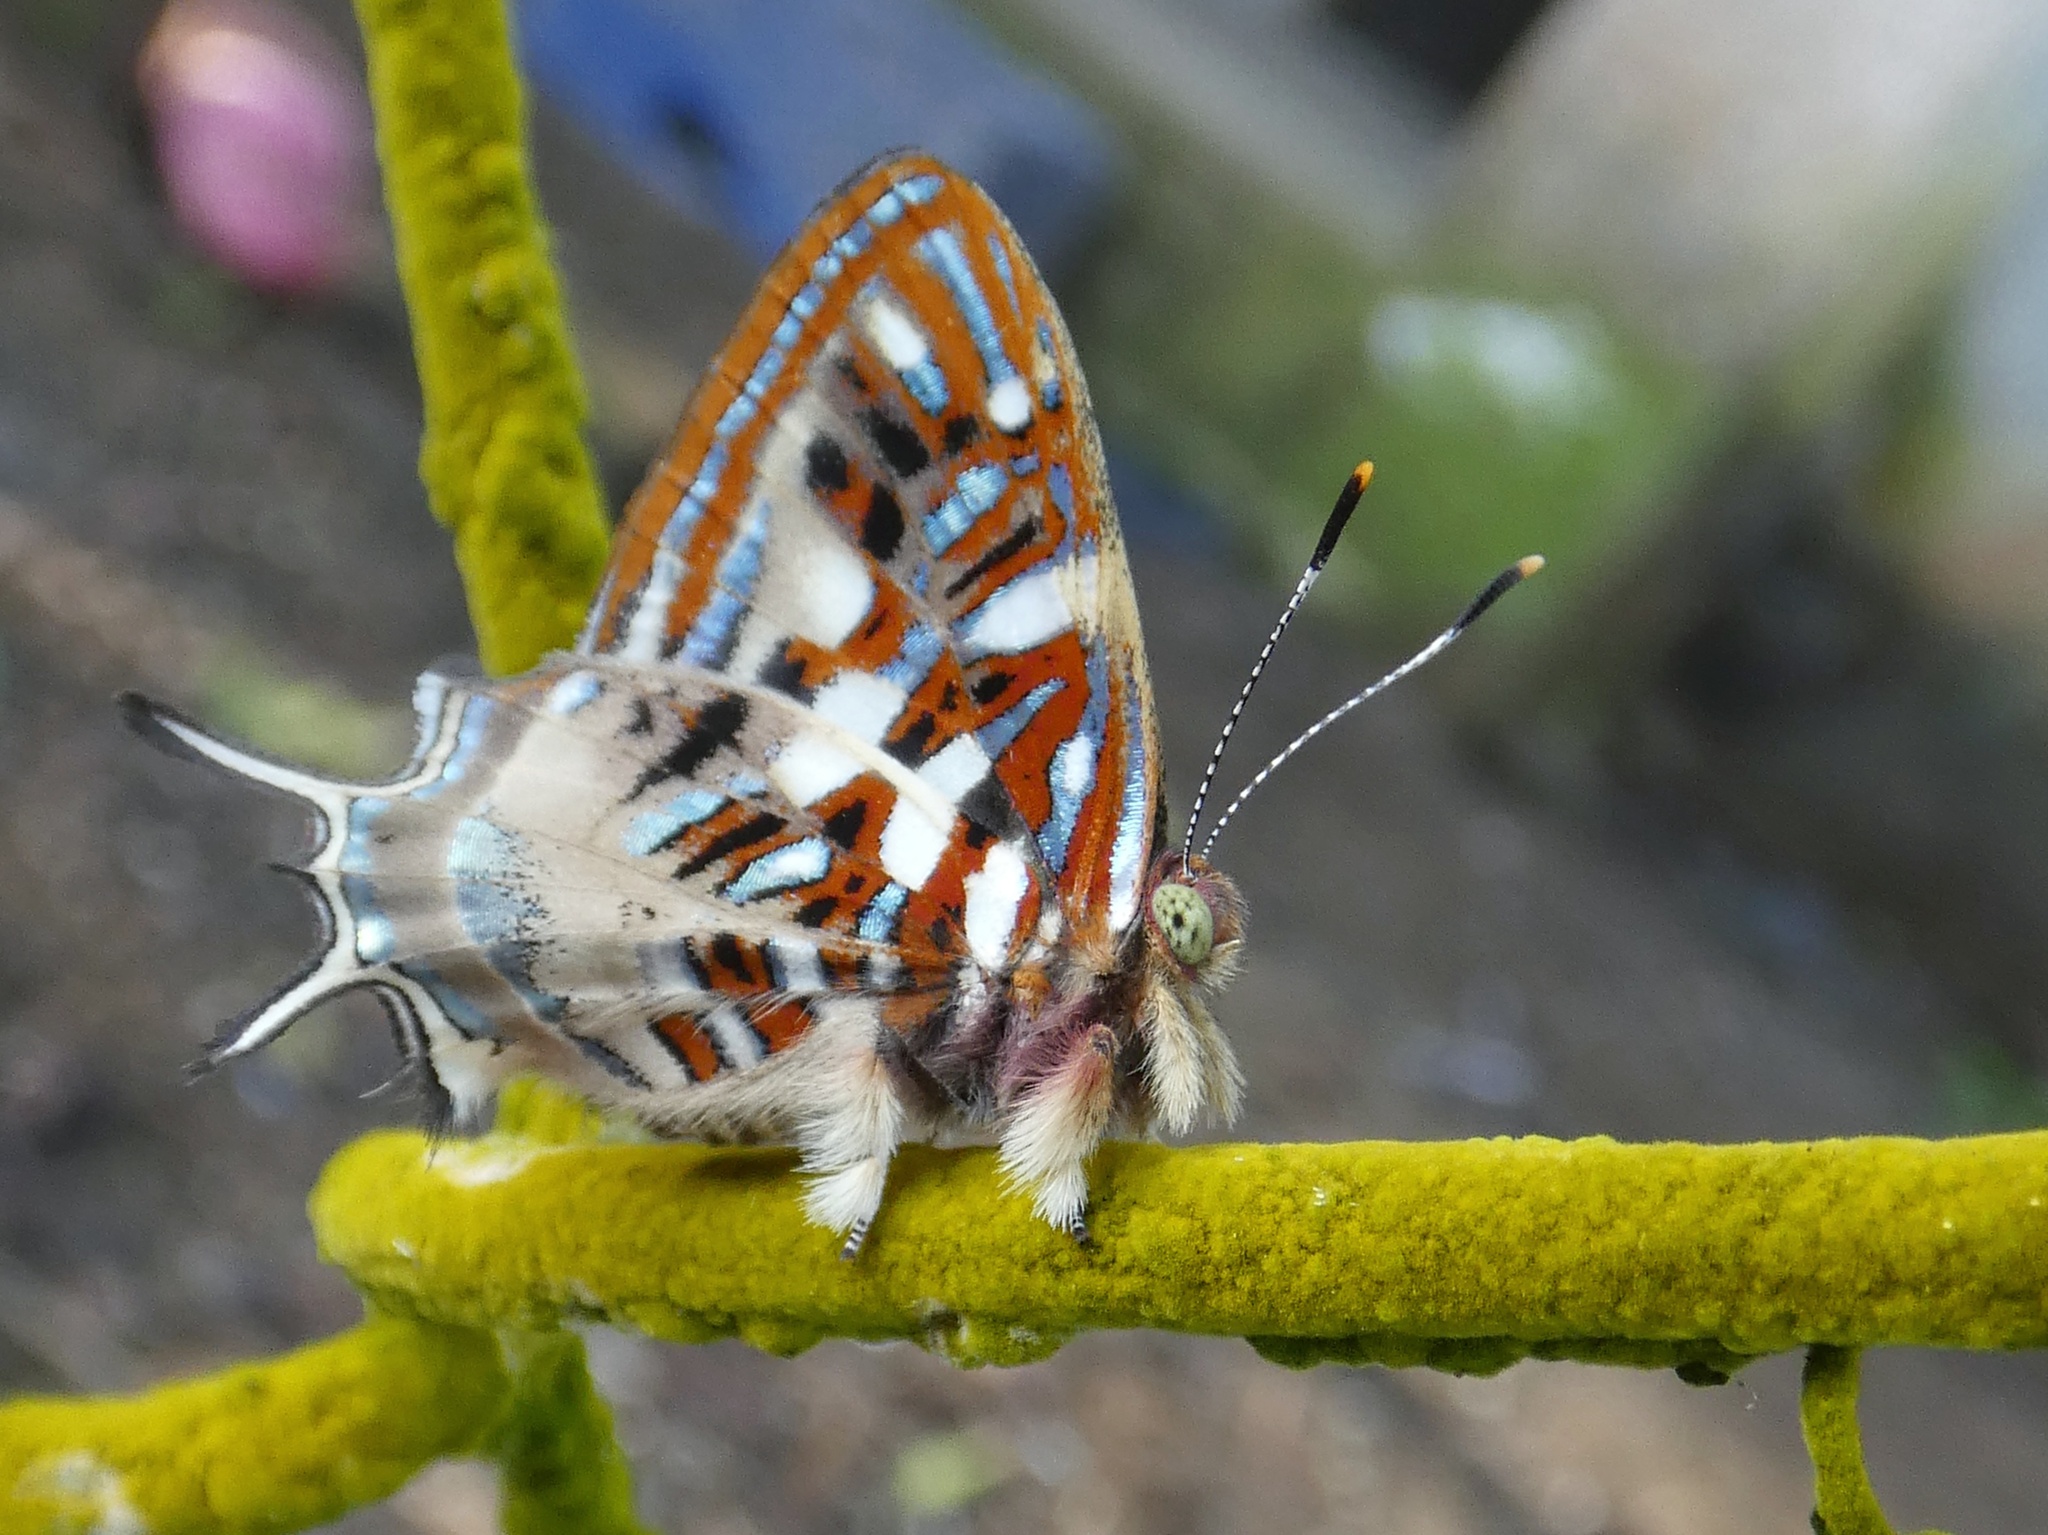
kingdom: Animalia
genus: Charis
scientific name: Charis Sarota chrysus
